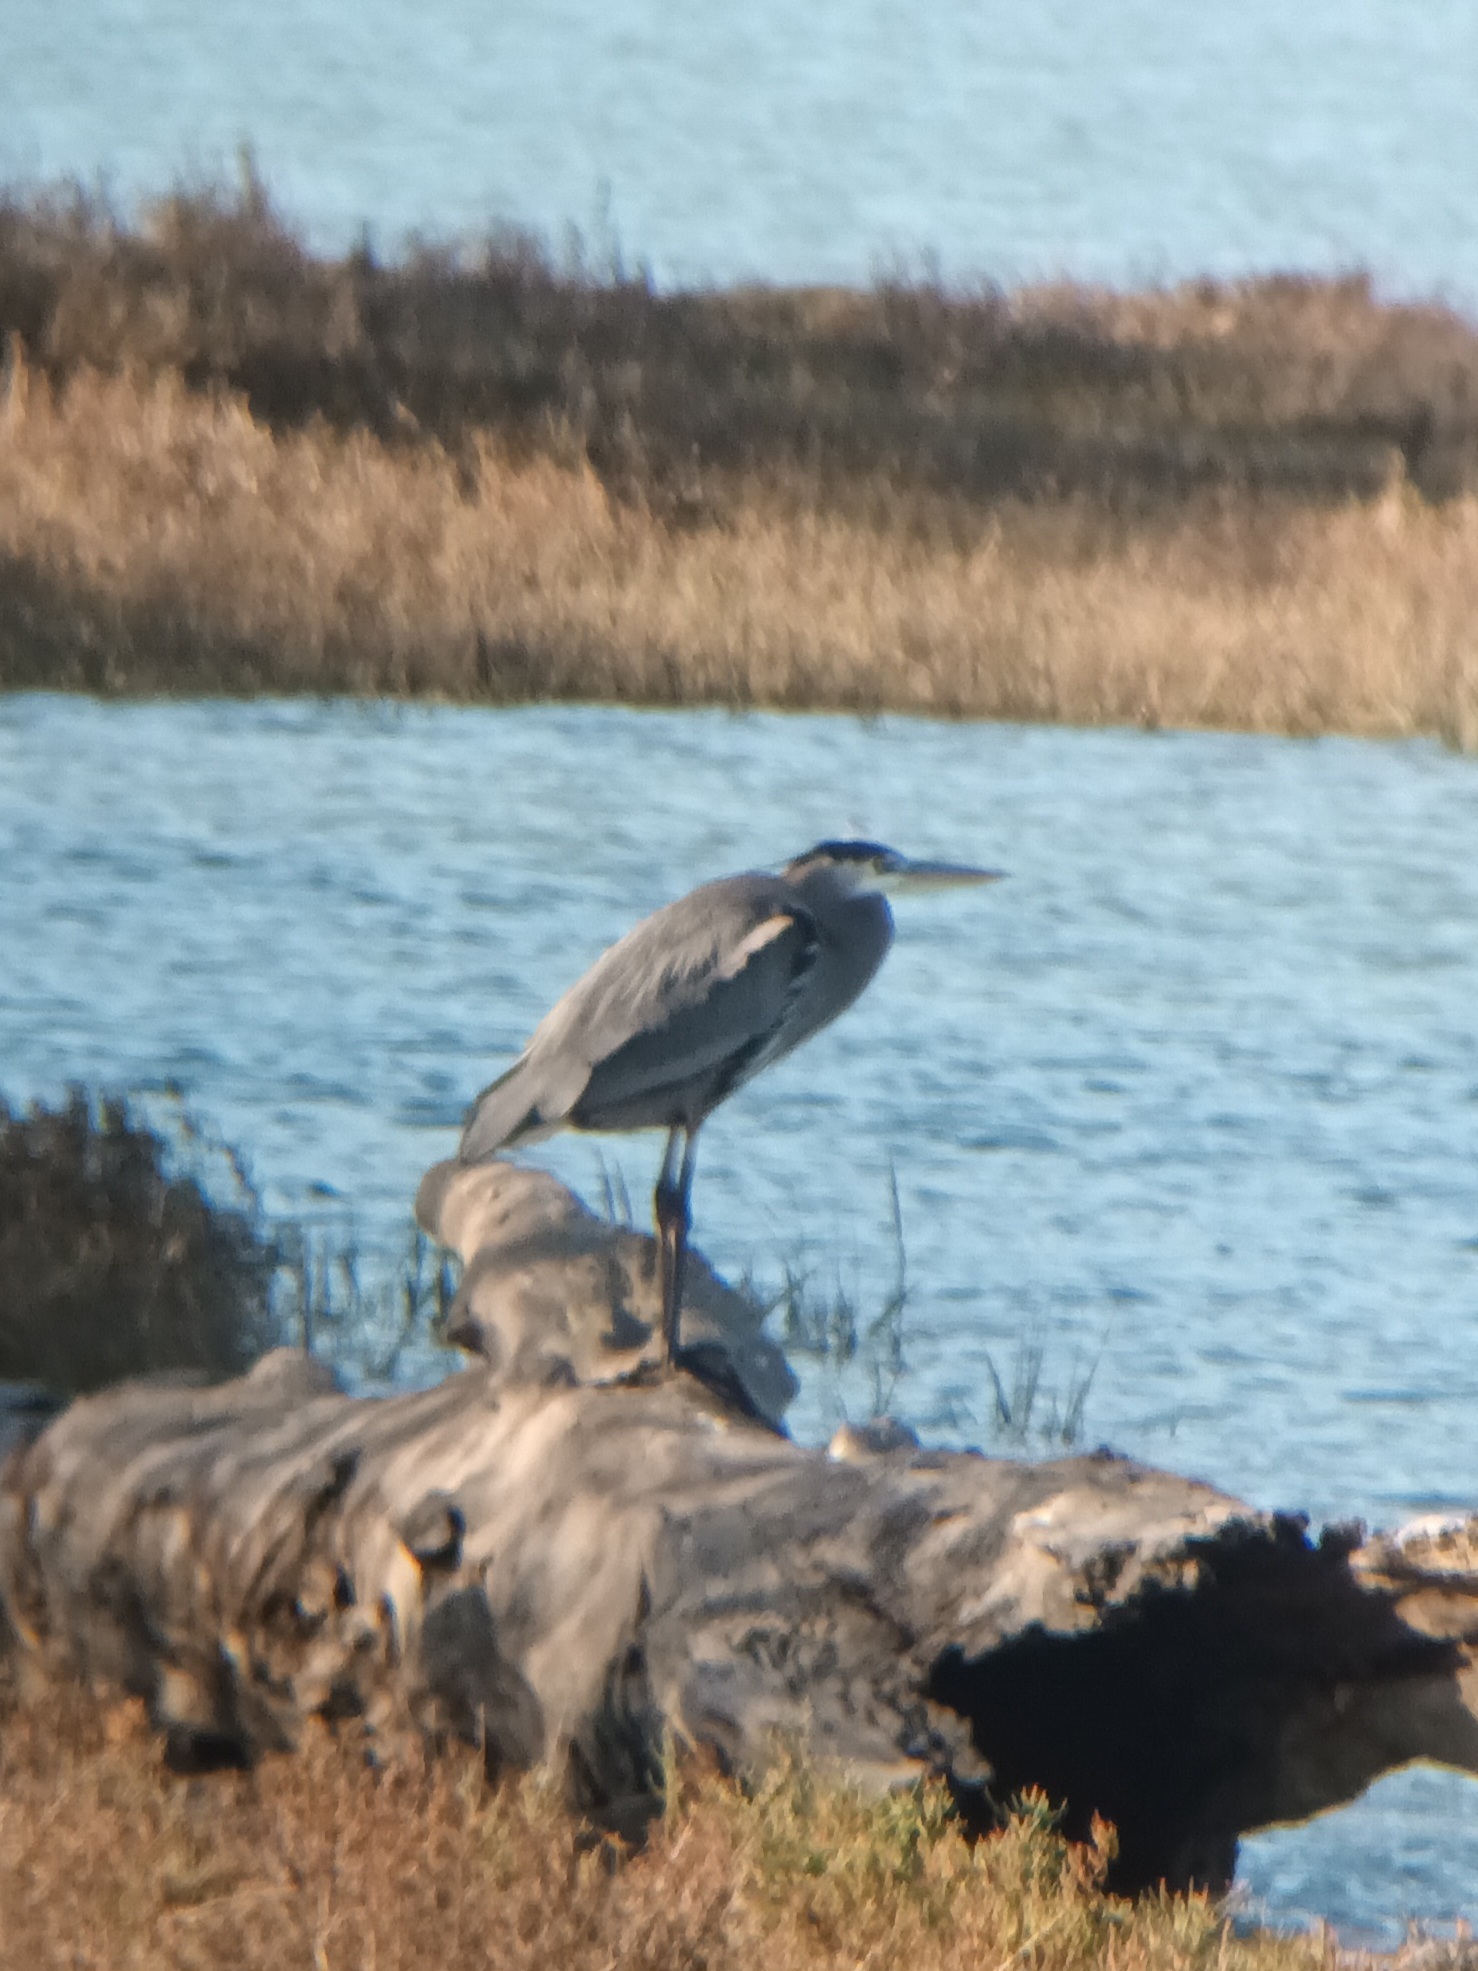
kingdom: Animalia
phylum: Chordata
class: Aves
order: Pelecaniformes
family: Ardeidae
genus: Ardea
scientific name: Ardea herodias
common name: Great blue heron
